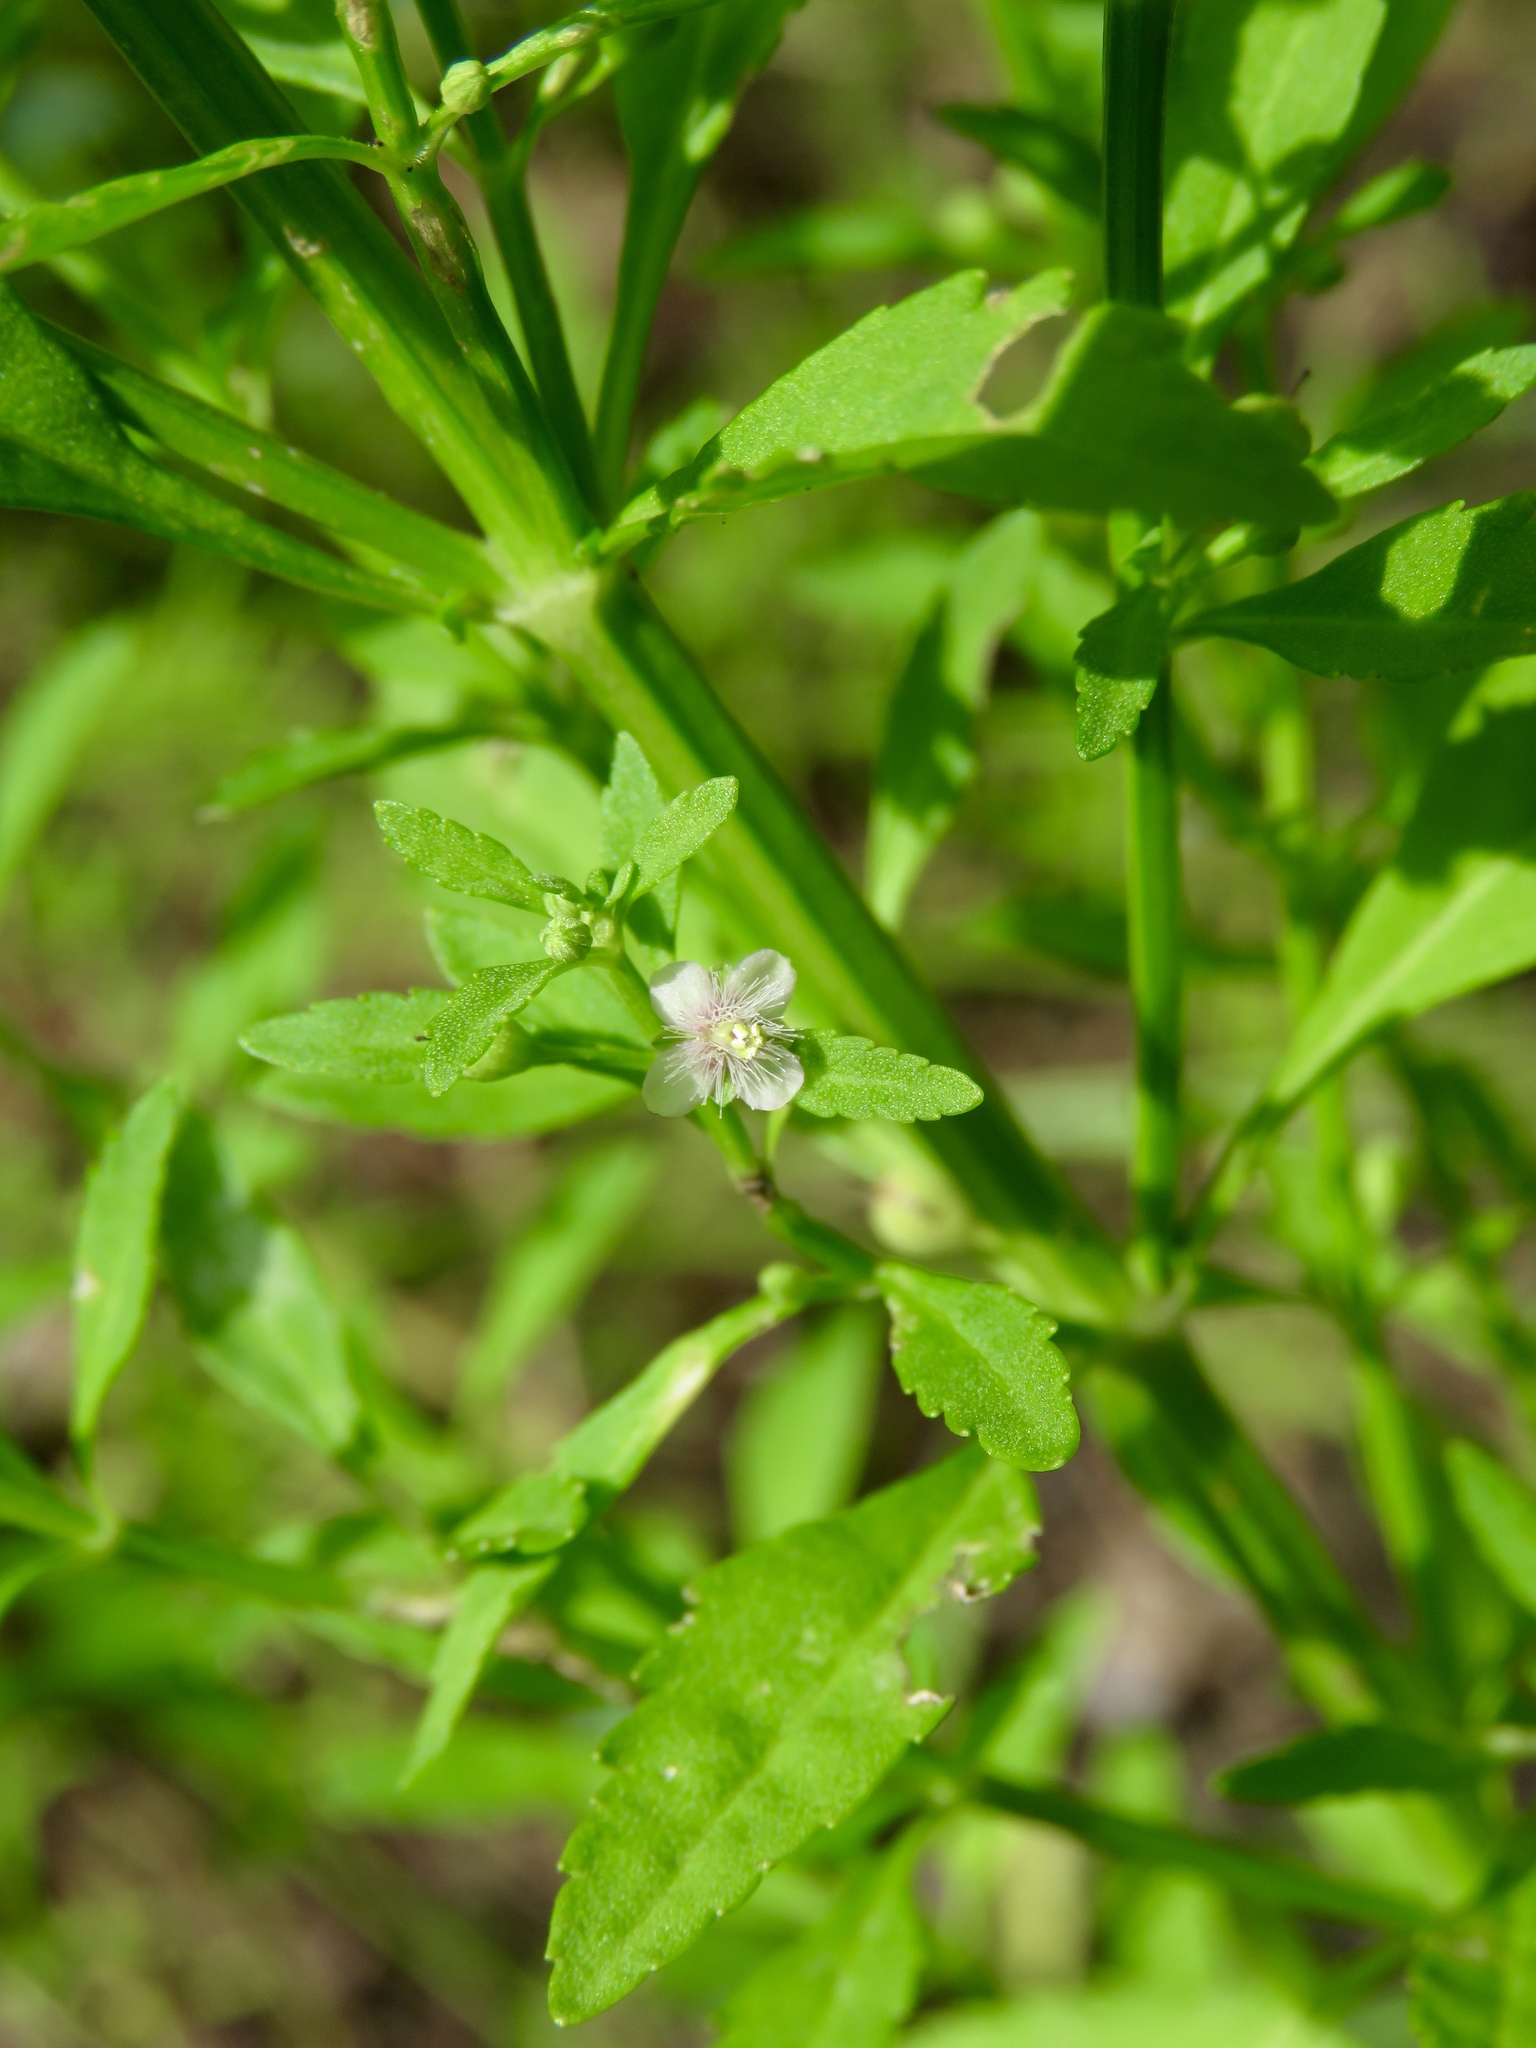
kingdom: Plantae
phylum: Tracheophyta
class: Magnoliopsida
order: Lamiales
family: Plantaginaceae
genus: Scoparia
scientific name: Scoparia dulcis
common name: Scoparia-weed
